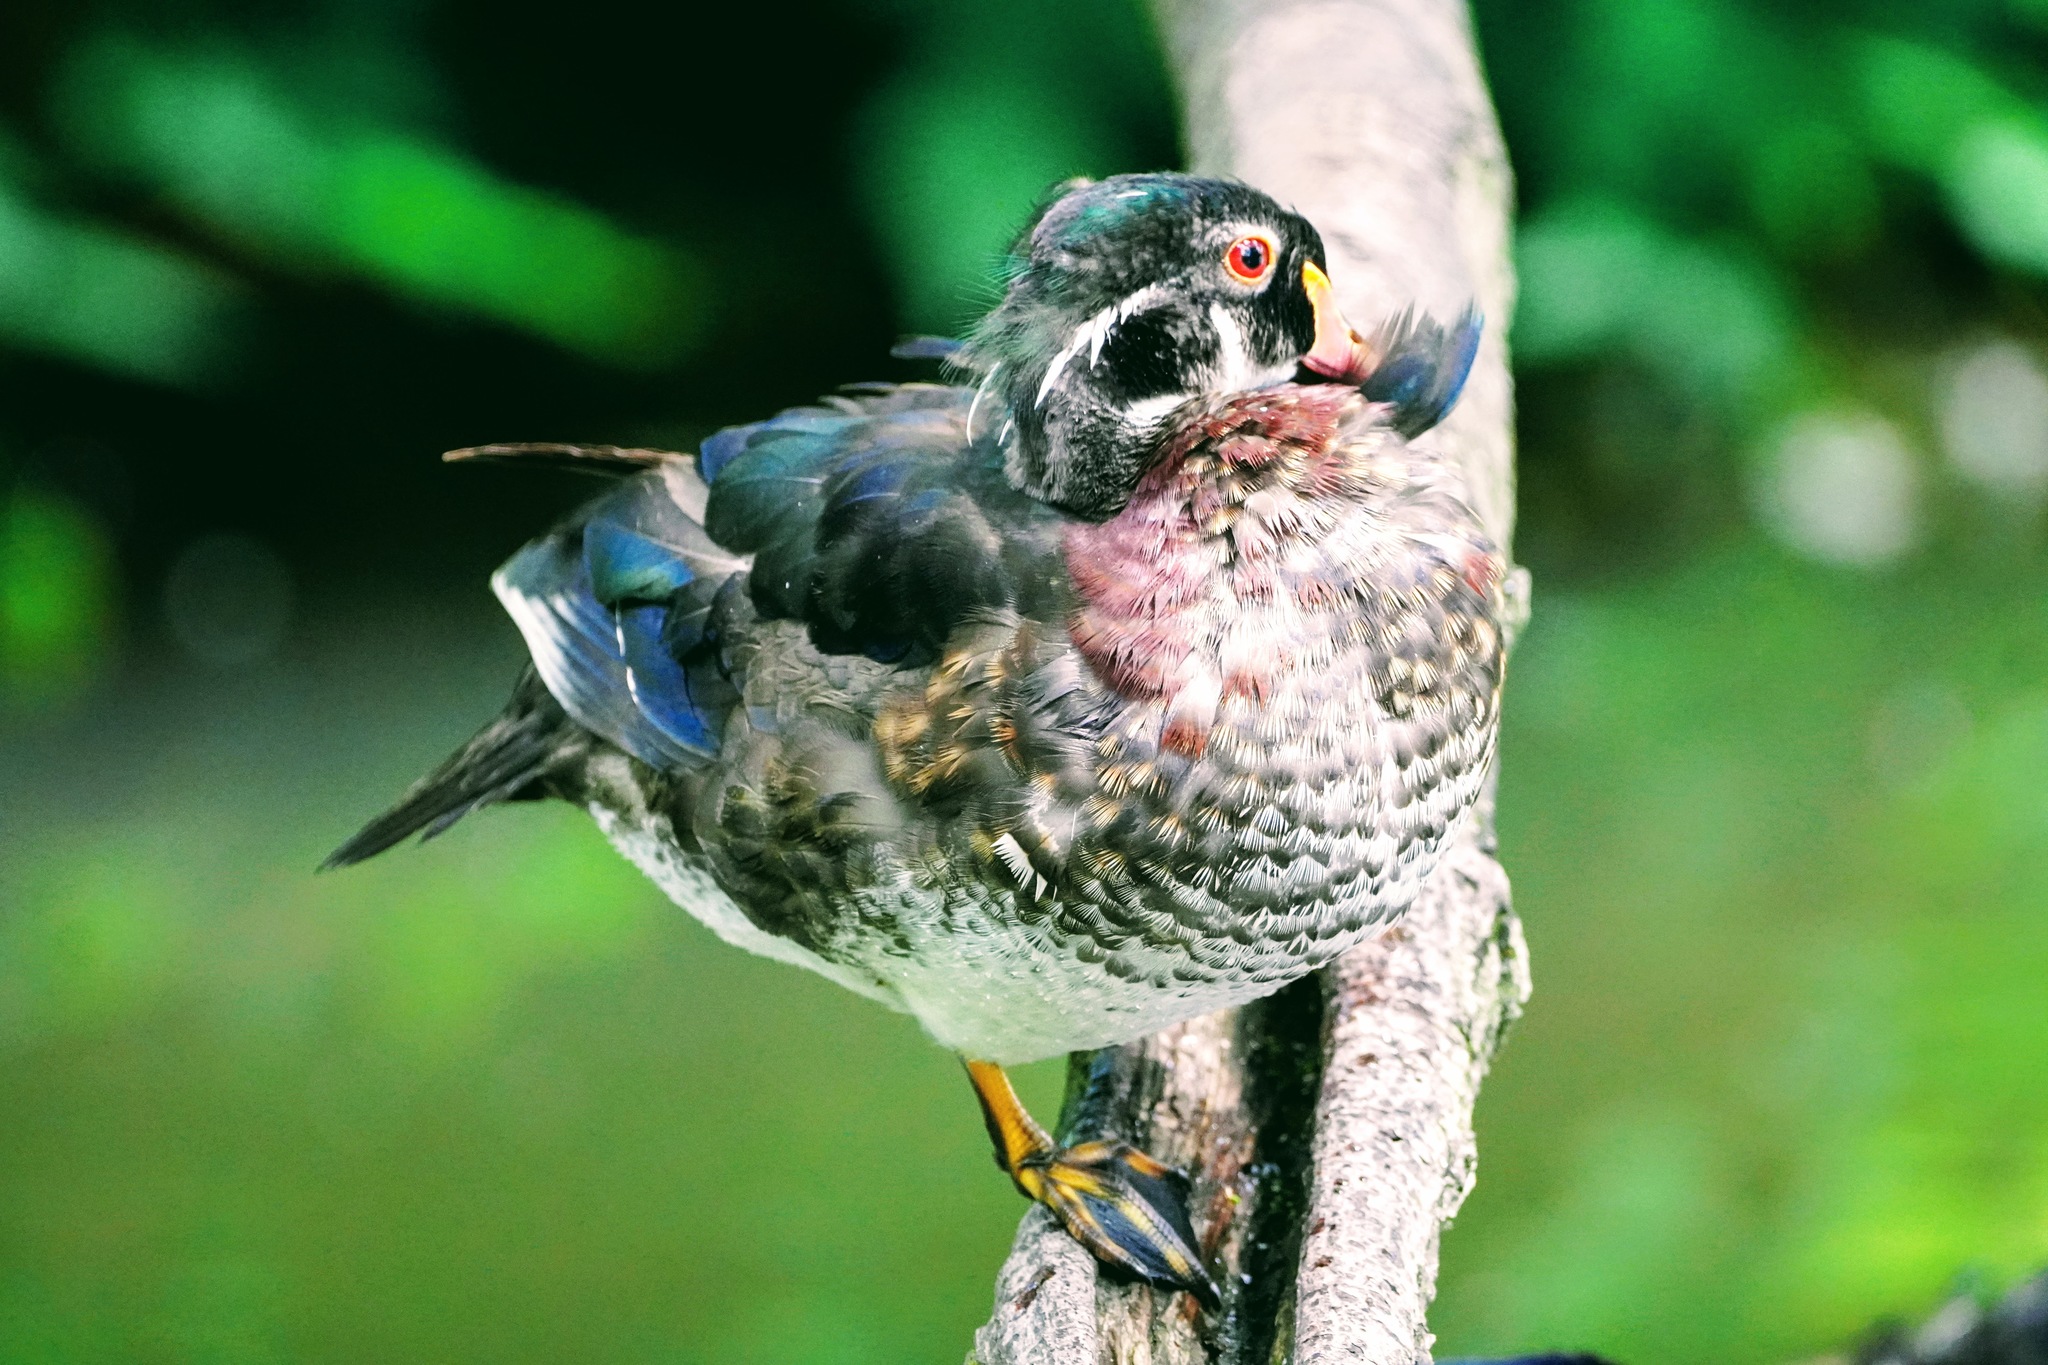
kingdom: Animalia
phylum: Chordata
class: Aves
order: Anseriformes
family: Anatidae
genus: Aix
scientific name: Aix sponsa
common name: Wood duck
